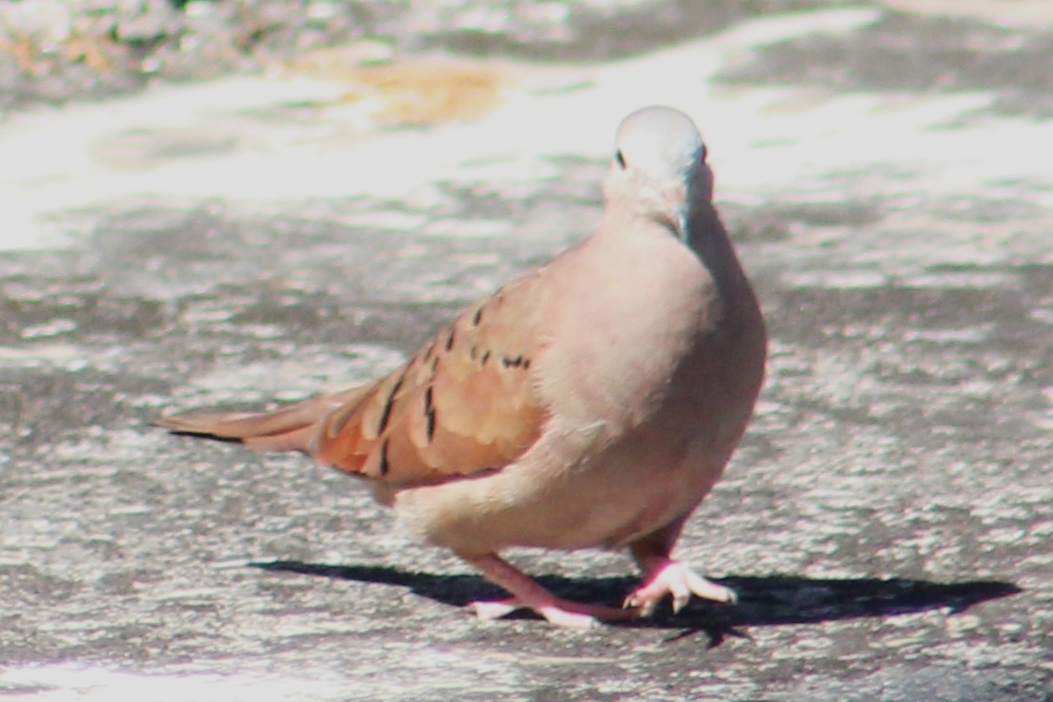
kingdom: Animalia
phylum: Chordata
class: Aves
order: Columbiformes
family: Columbidae
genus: Columbina
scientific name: Columbina talpacoti
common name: Ruddy ground dove
